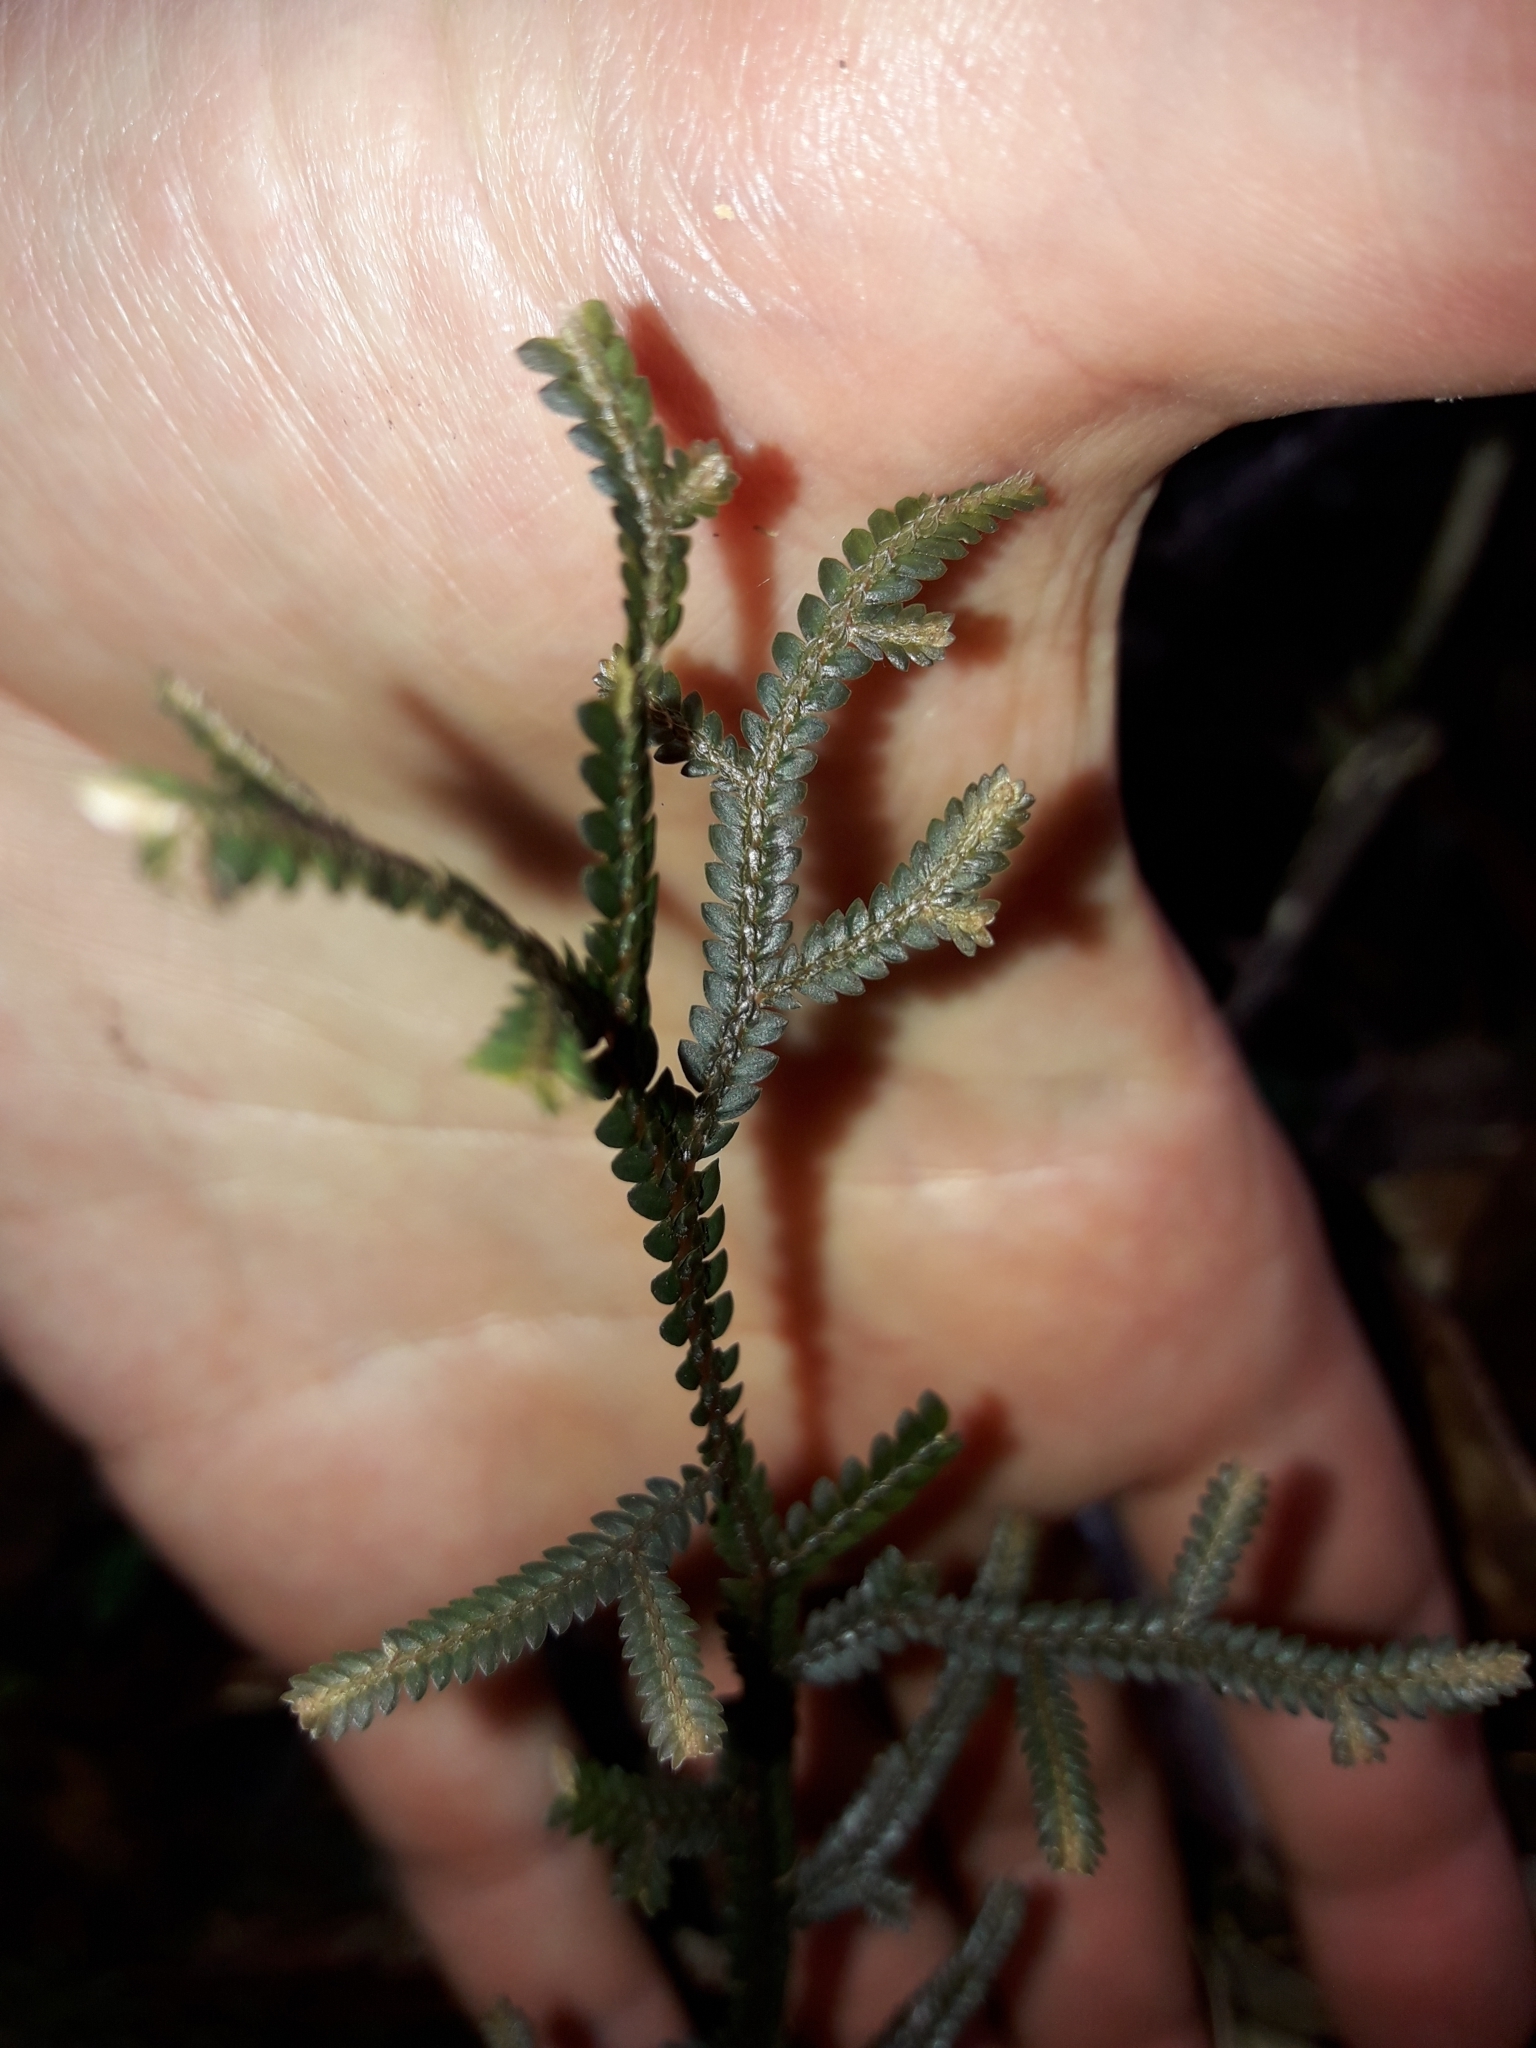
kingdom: Plantae
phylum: Tracheophyta
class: Lycopodiopsida
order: Selaginellales
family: Selaginellaceae
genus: Selaginella
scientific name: Selaginella neocaledonica
